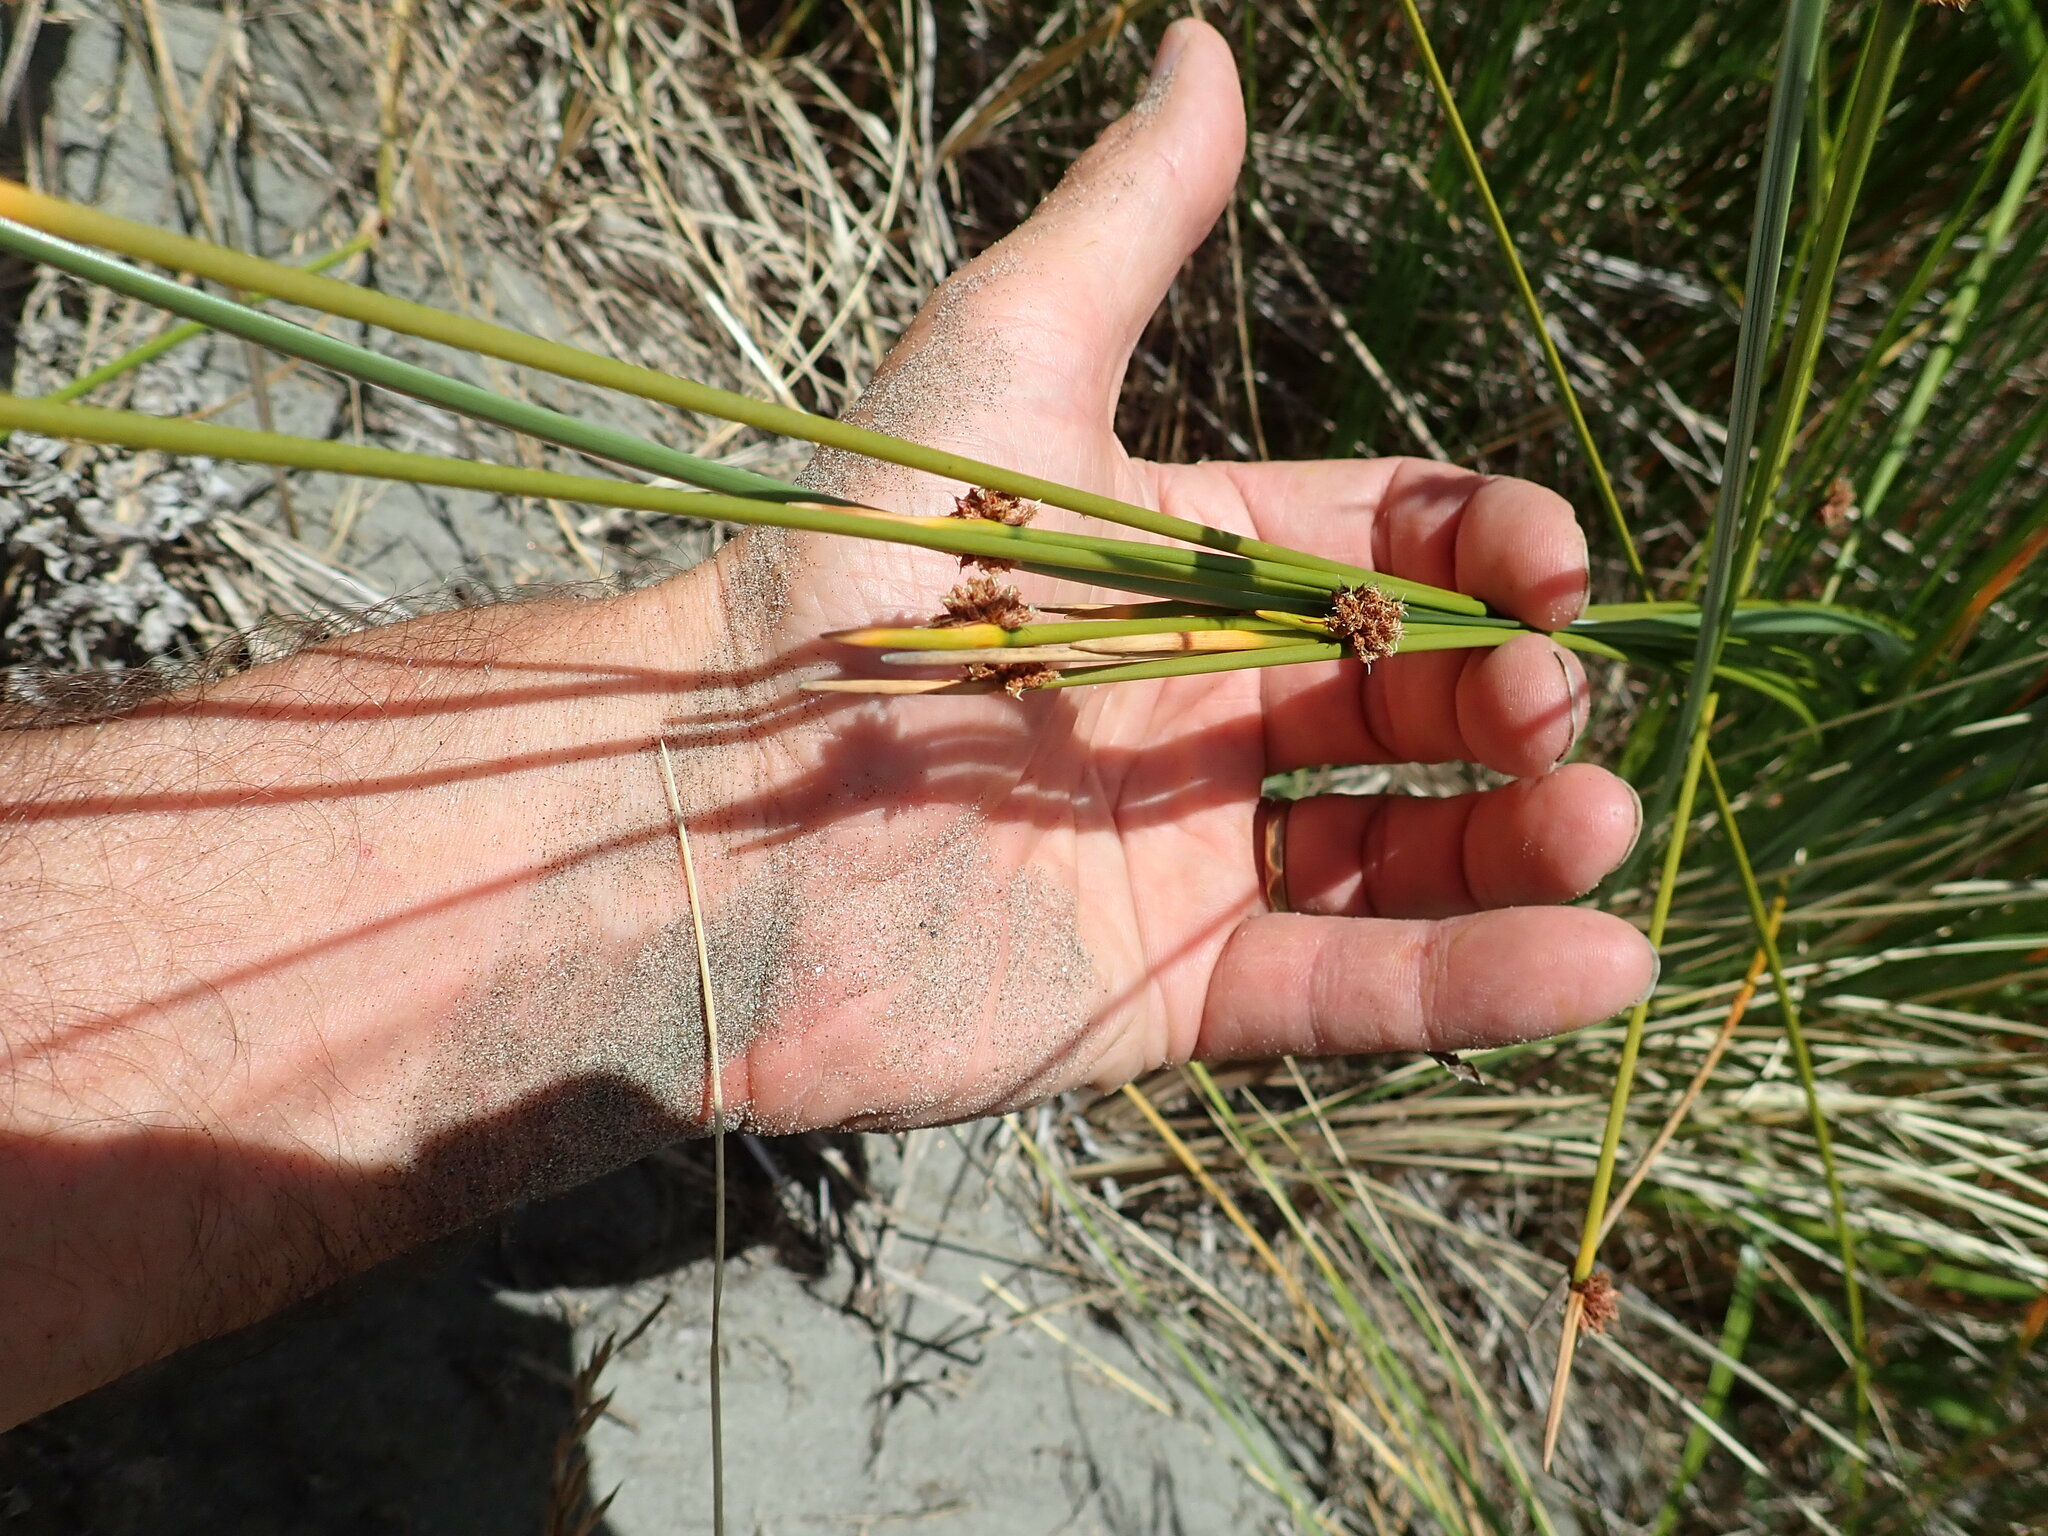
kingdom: Plantae
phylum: Tracheophyta
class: Liliopsida
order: Poales
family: Cyperaceae
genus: Ficinia
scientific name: Ficinia nodosa
